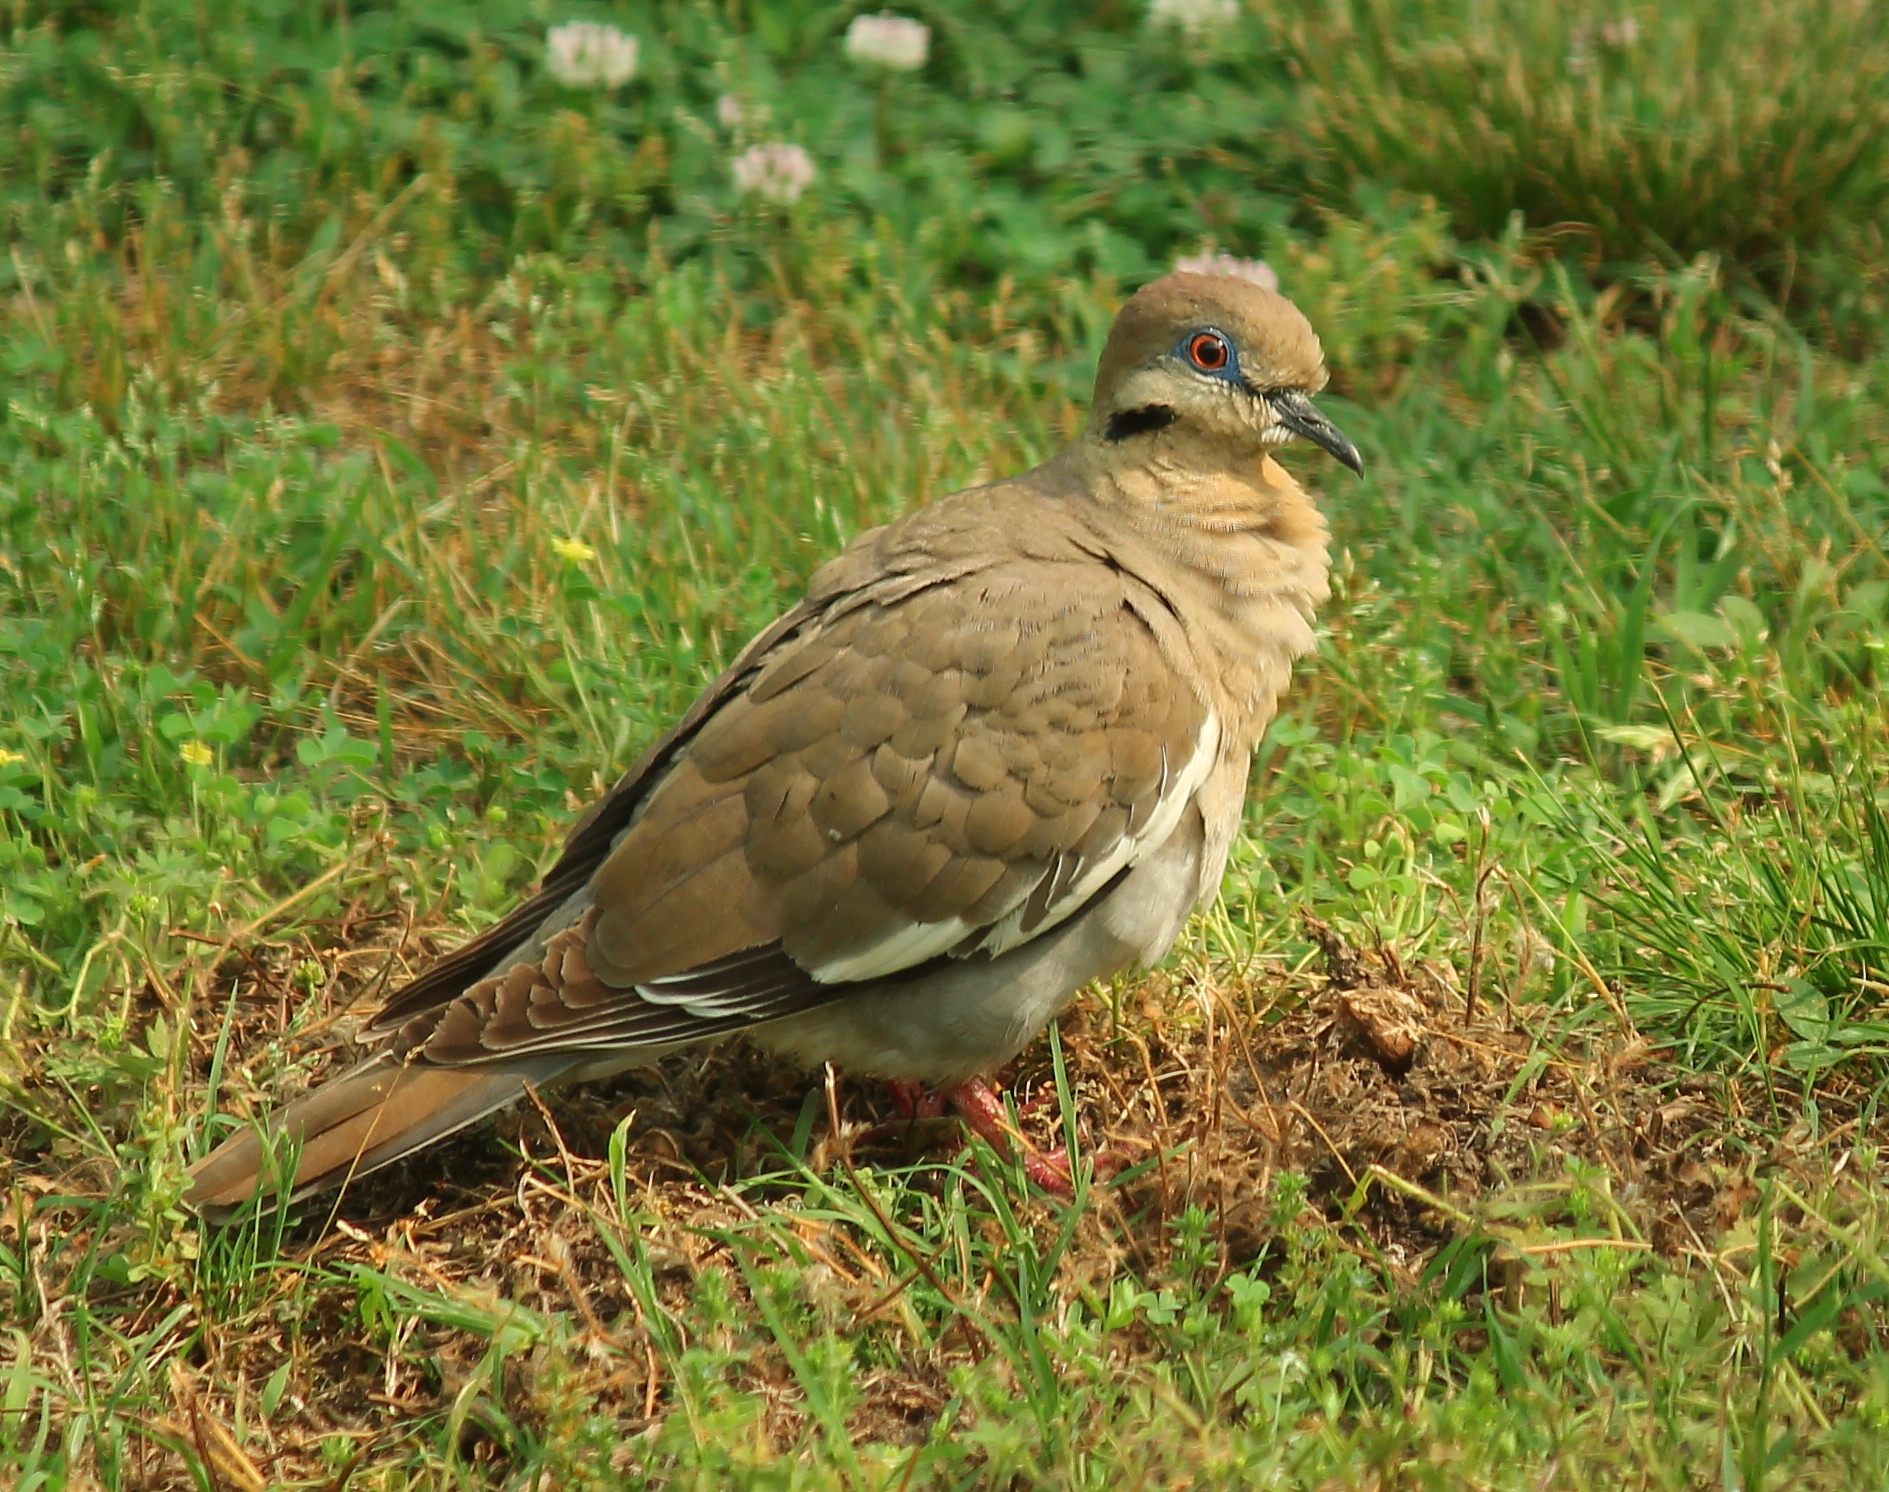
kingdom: Animalia
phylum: Chordata
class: Aves
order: Columbiformes
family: Columbidae
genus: Zenaida
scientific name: Zenaida asiatica
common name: White-winged dove
